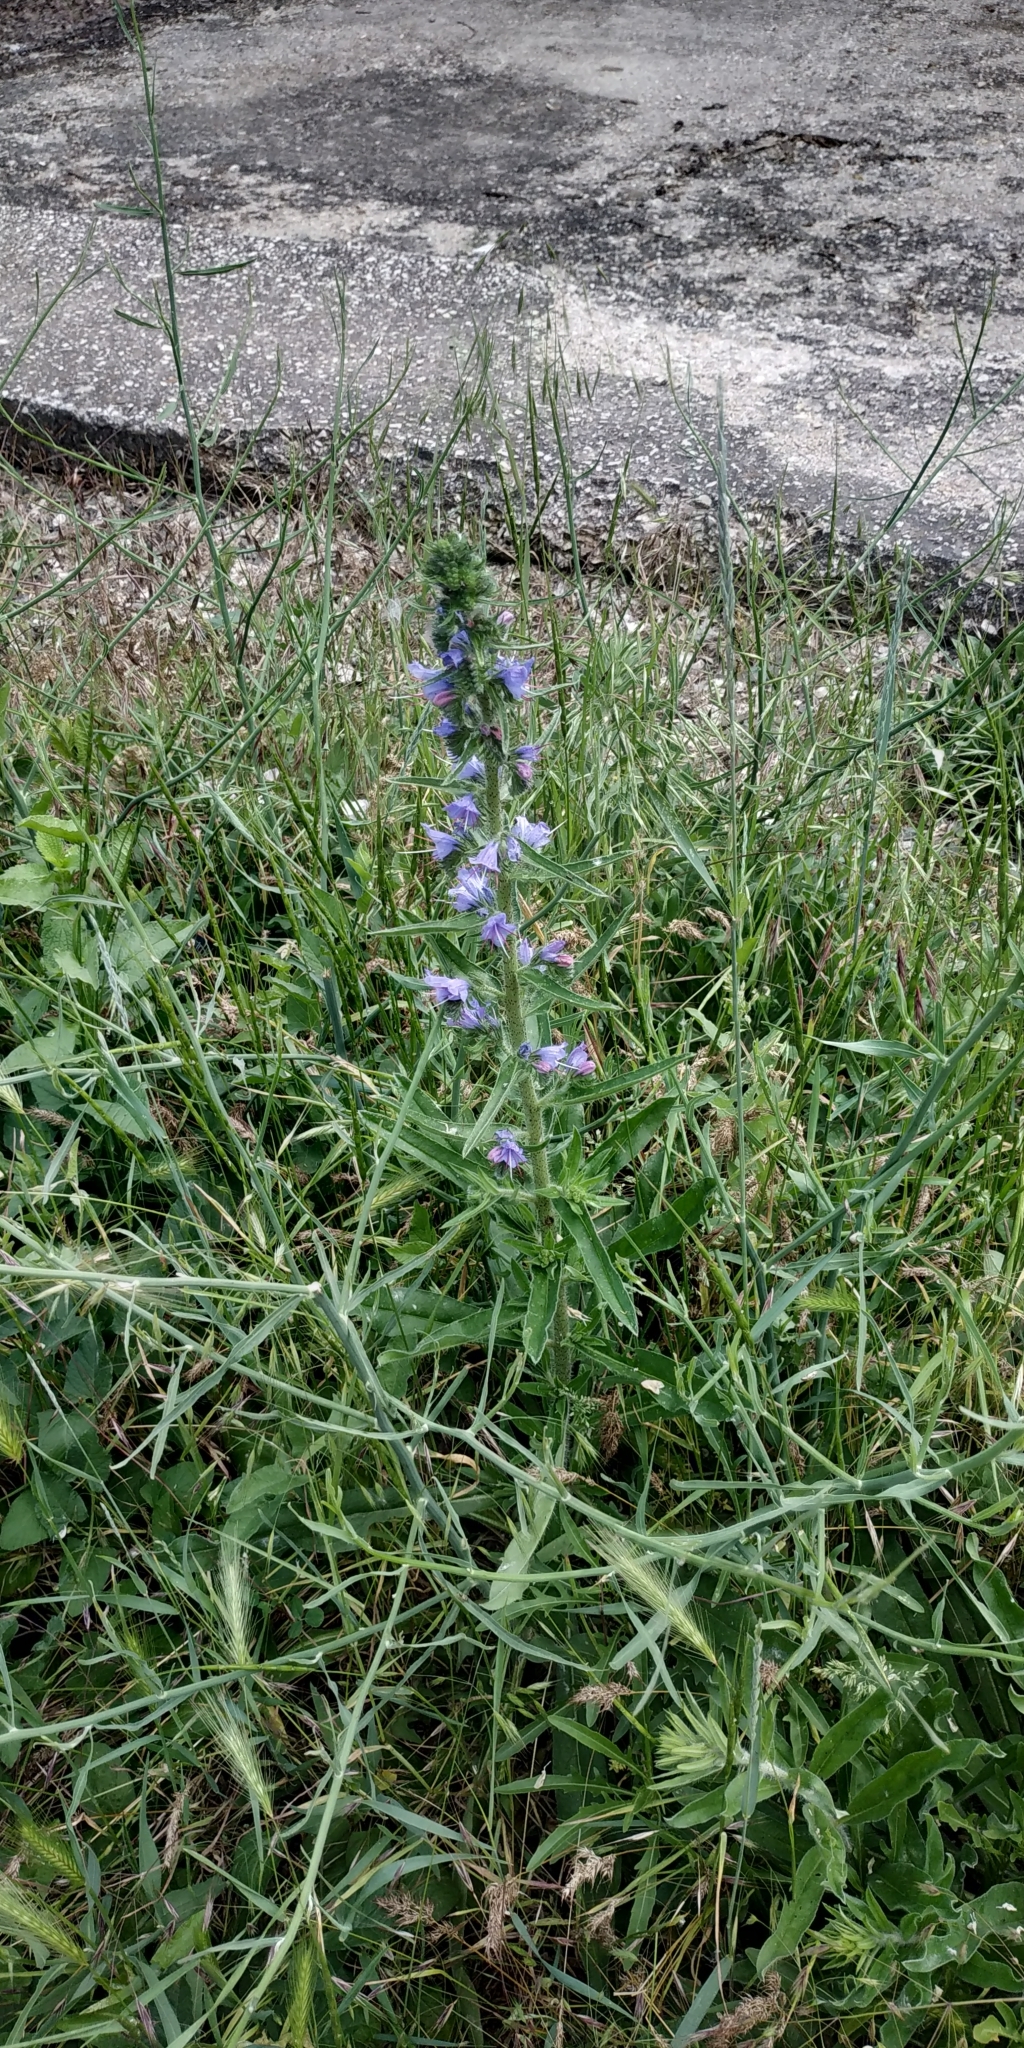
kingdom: Plantae
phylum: Tracheophyta
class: Magnoliopsida
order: Boraginales
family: Boraginaceae
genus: Echium
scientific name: Echium vulgare
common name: Common viper's bugloss
